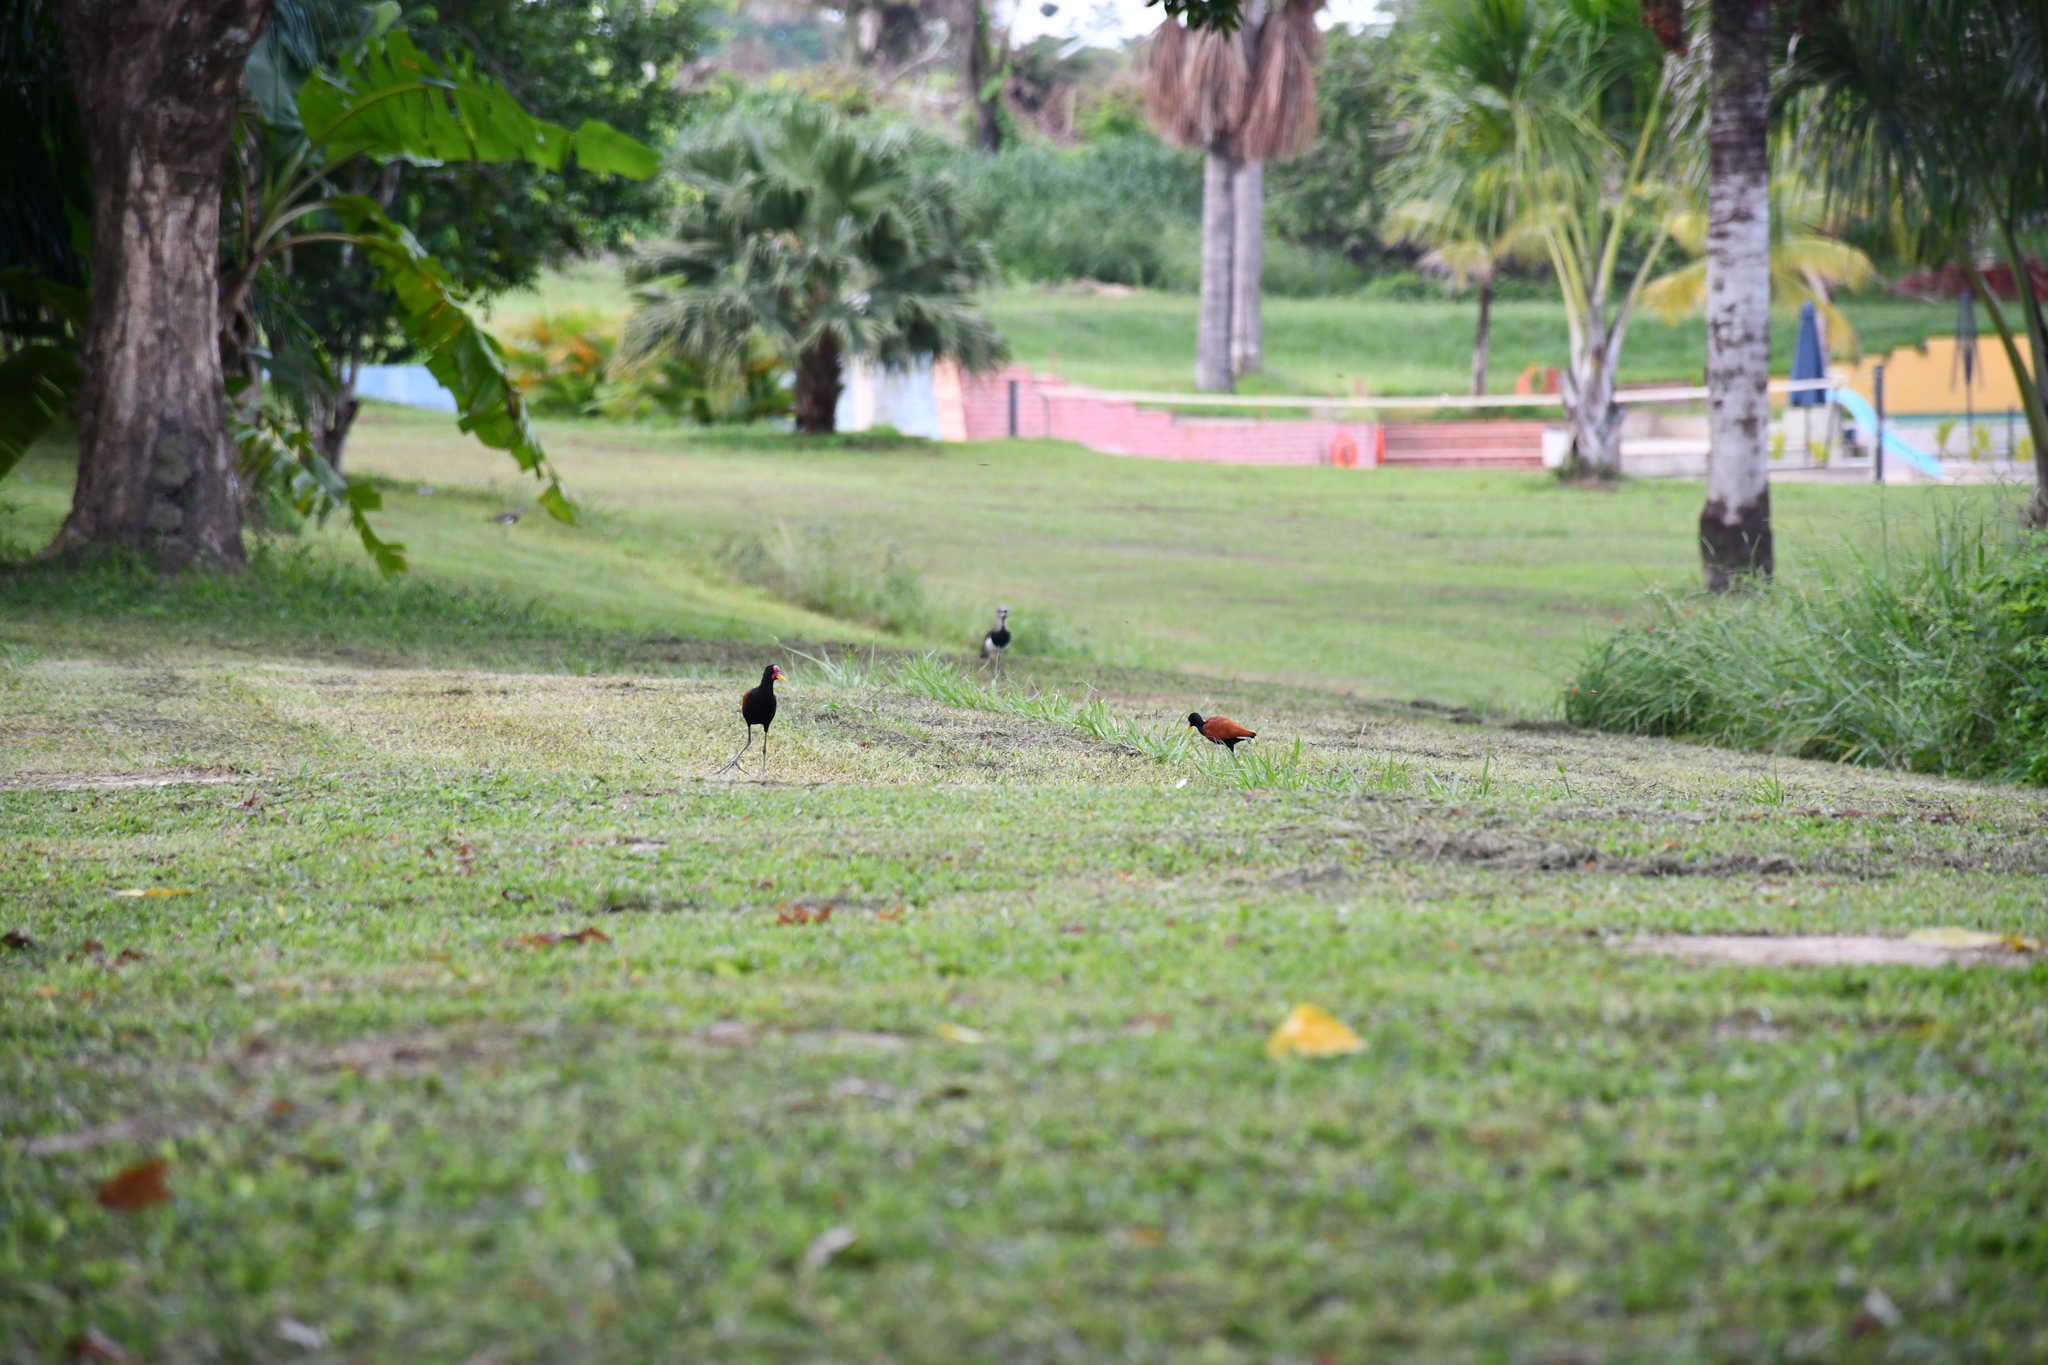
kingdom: Animalia
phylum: Chordata
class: Aves
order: Charadriiformes
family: Jacanidae
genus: Jacana
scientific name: Jacana jacana
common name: Wattled jacana
